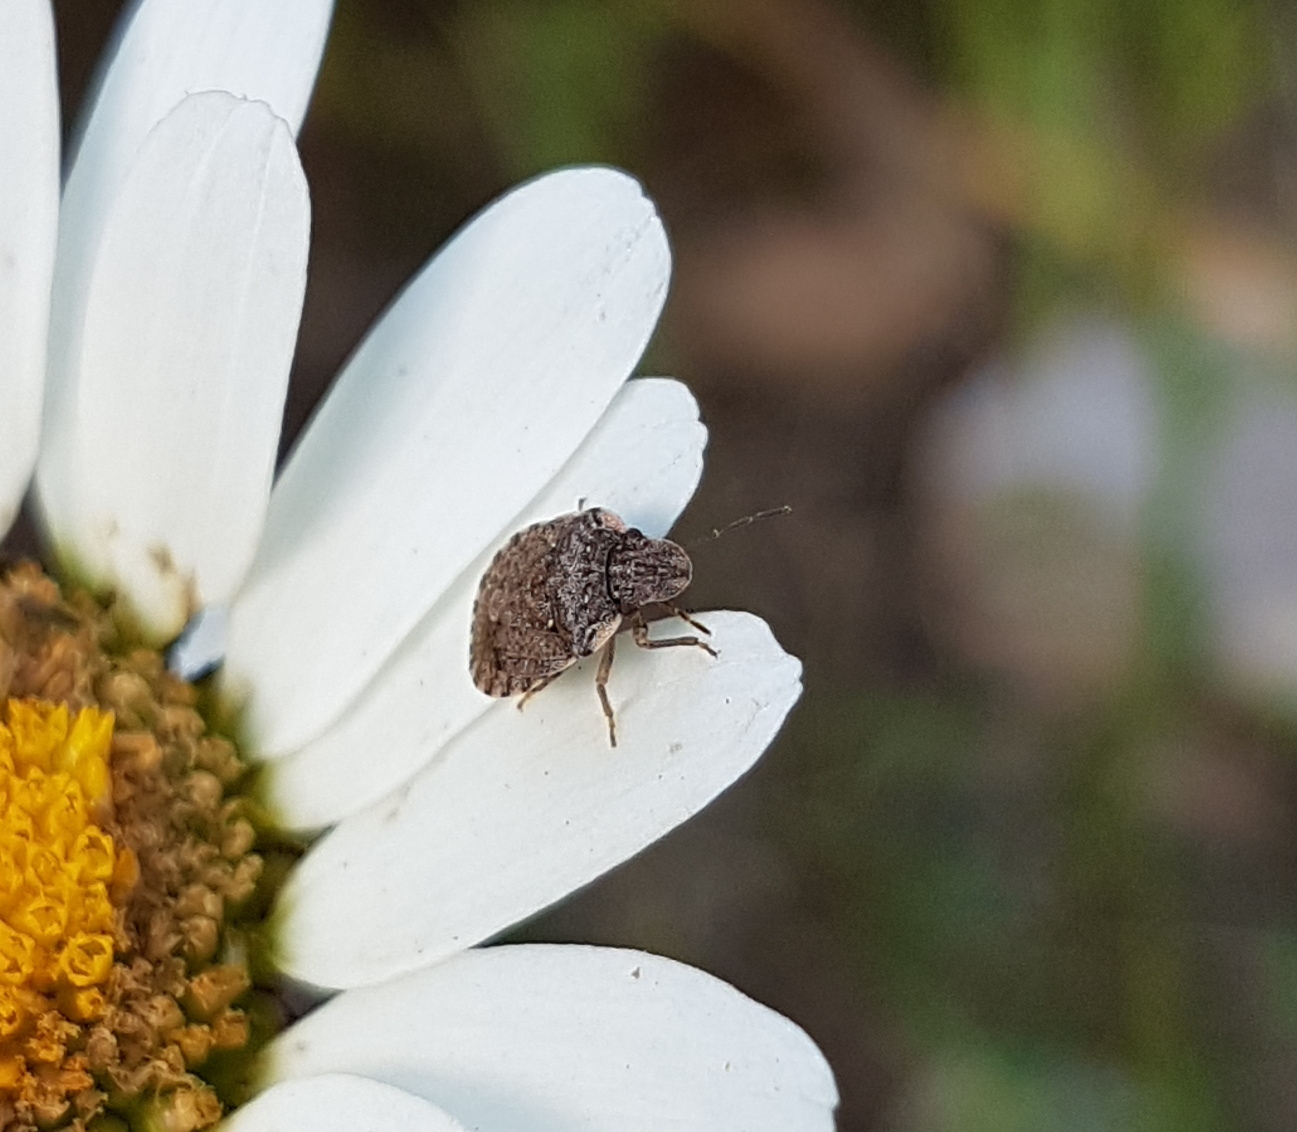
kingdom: Animalia
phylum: Arthropoda
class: Insecta
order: Hemiptera
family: Pentatomidae
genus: Sciocoris
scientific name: Sciocoris sideritidis
